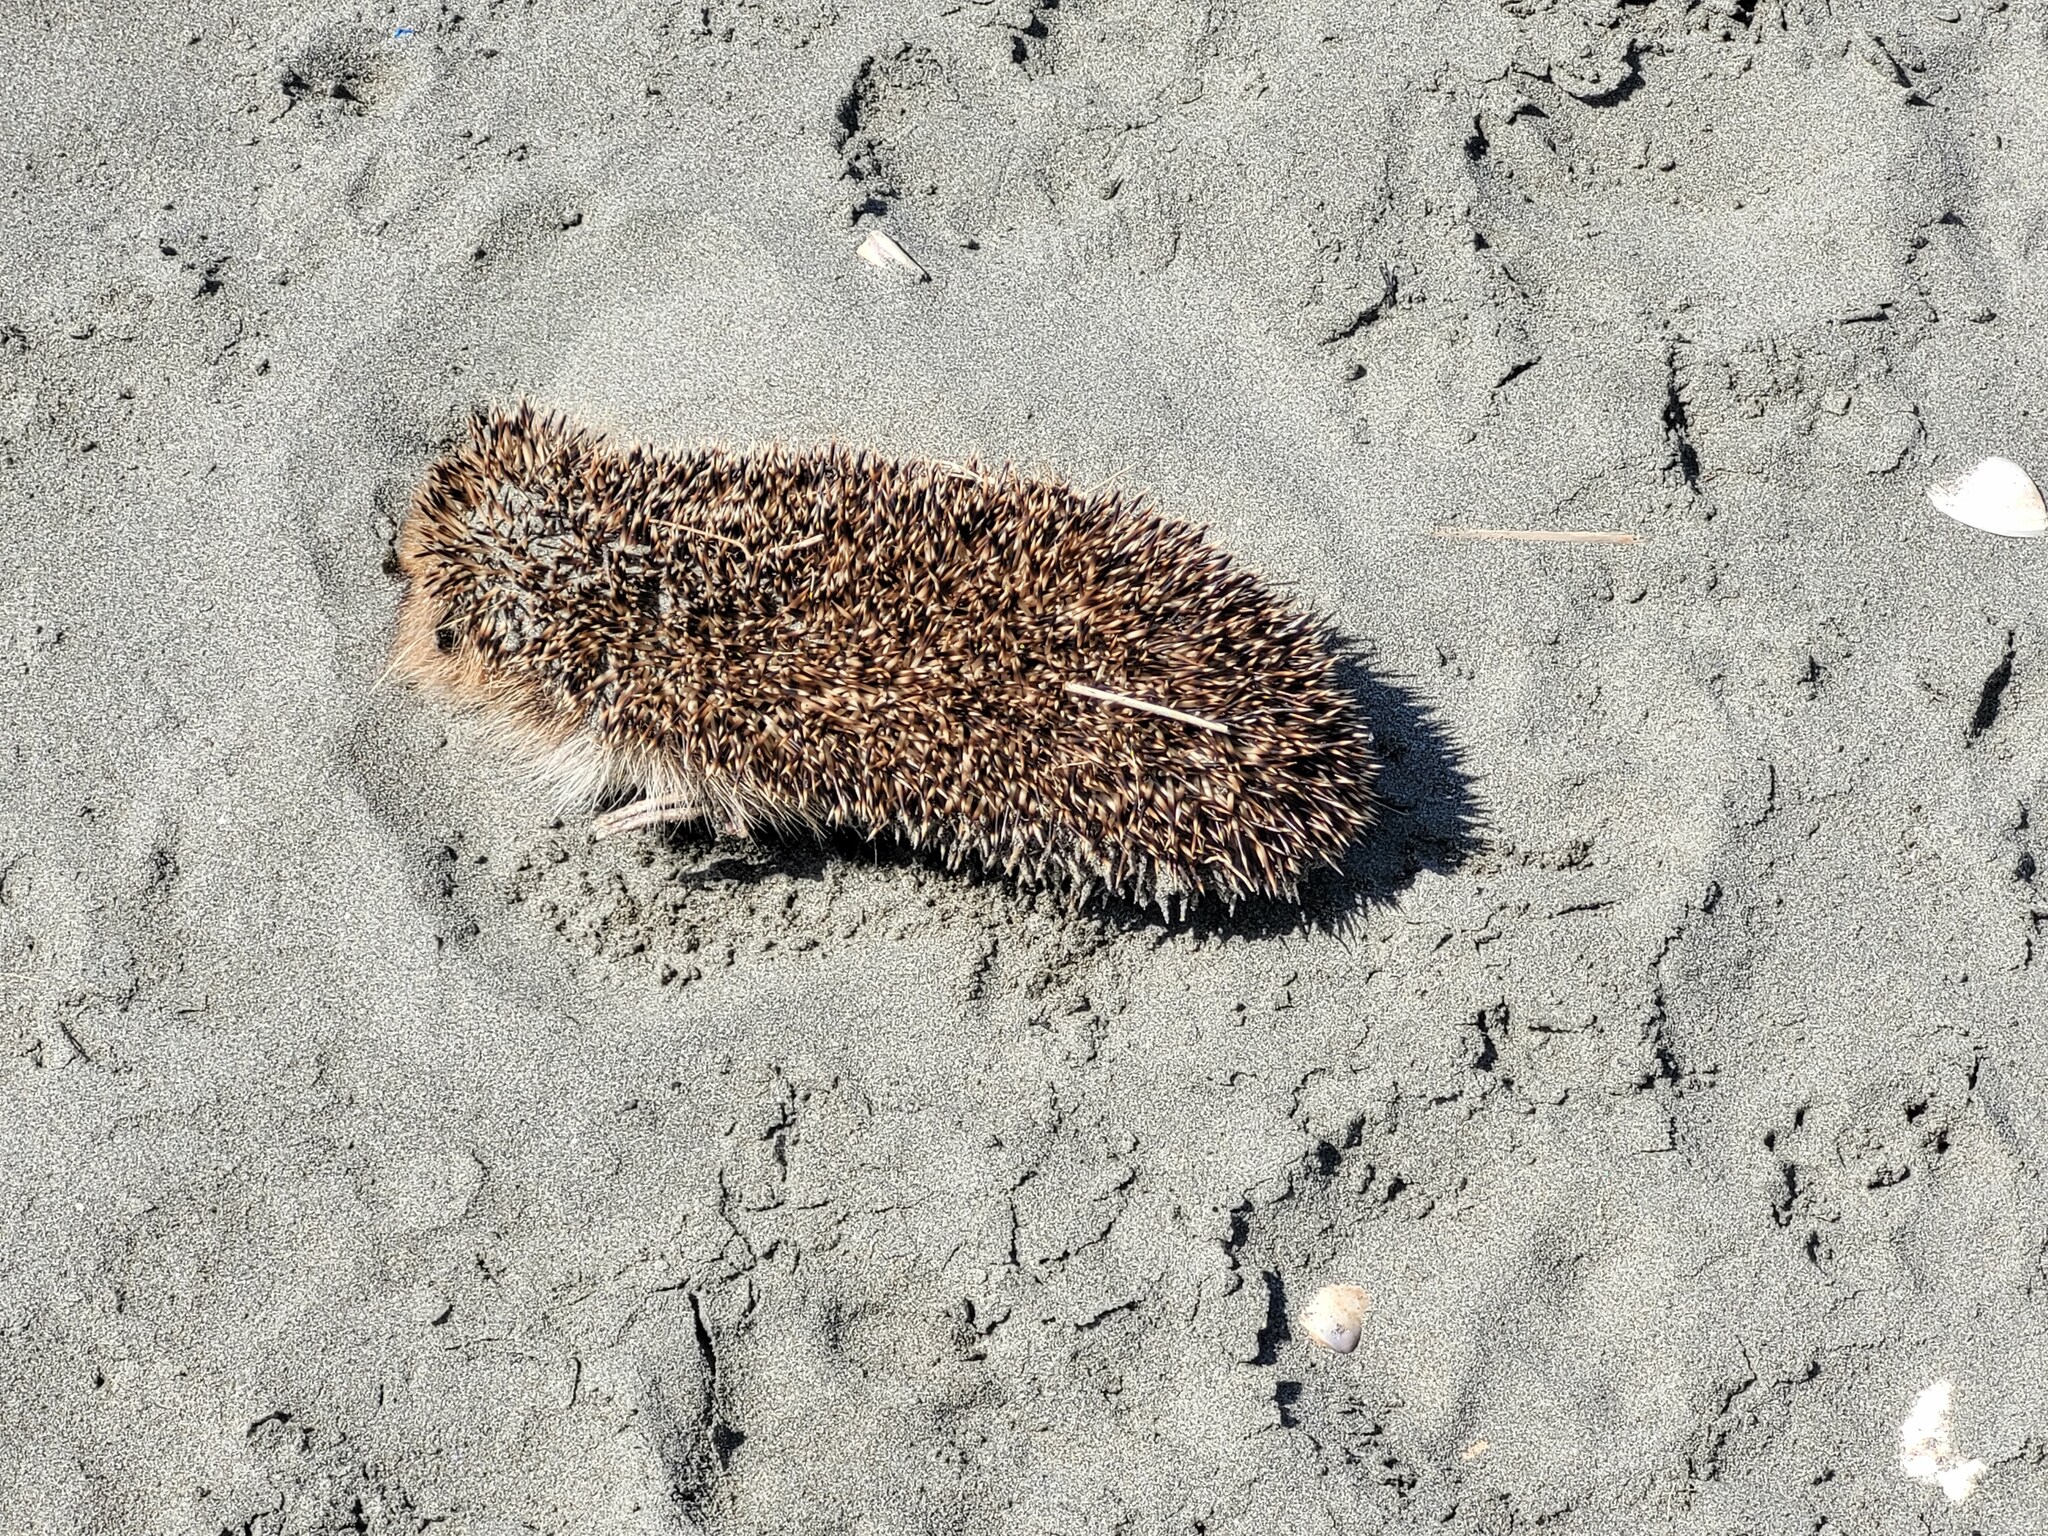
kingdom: Animalia
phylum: Chordata
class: Mammalia
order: Erinaceomorpha
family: Erinaceidae
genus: Erinaceus
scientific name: Erinaceus europaeus
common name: West european hedgehog
